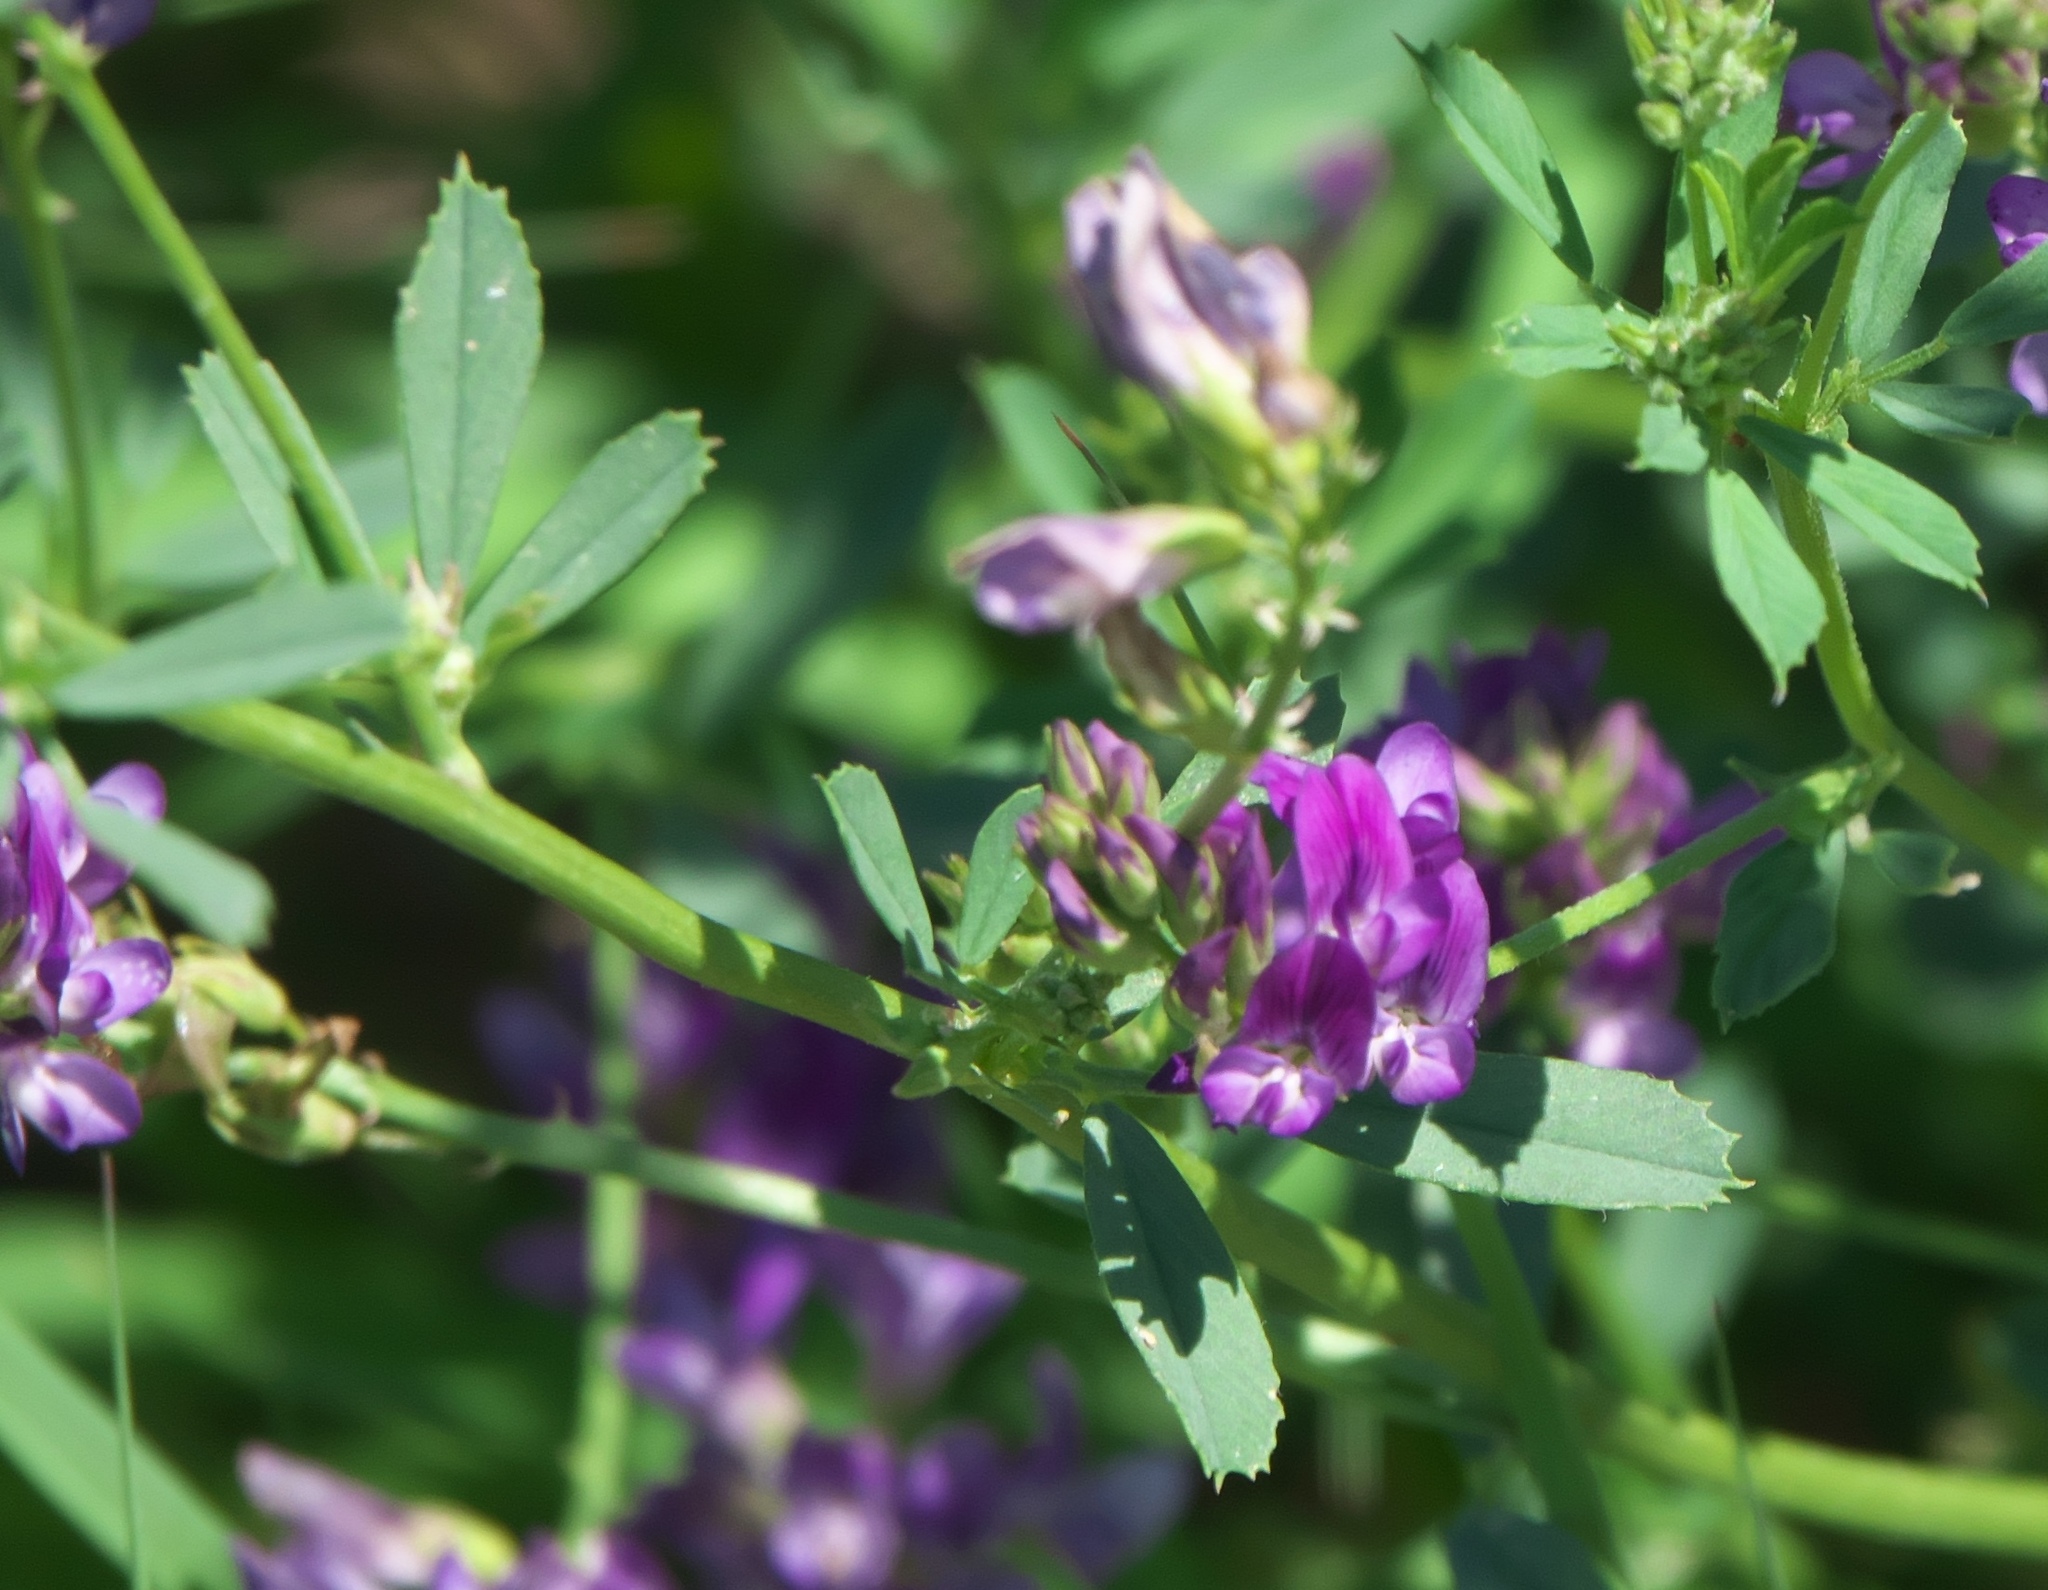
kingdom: Plantae
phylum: Tracheophyta
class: Magnoliopsida
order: Fabales
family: Fabaceae
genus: Medicago
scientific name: Medicago sativa
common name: Alfalfa
